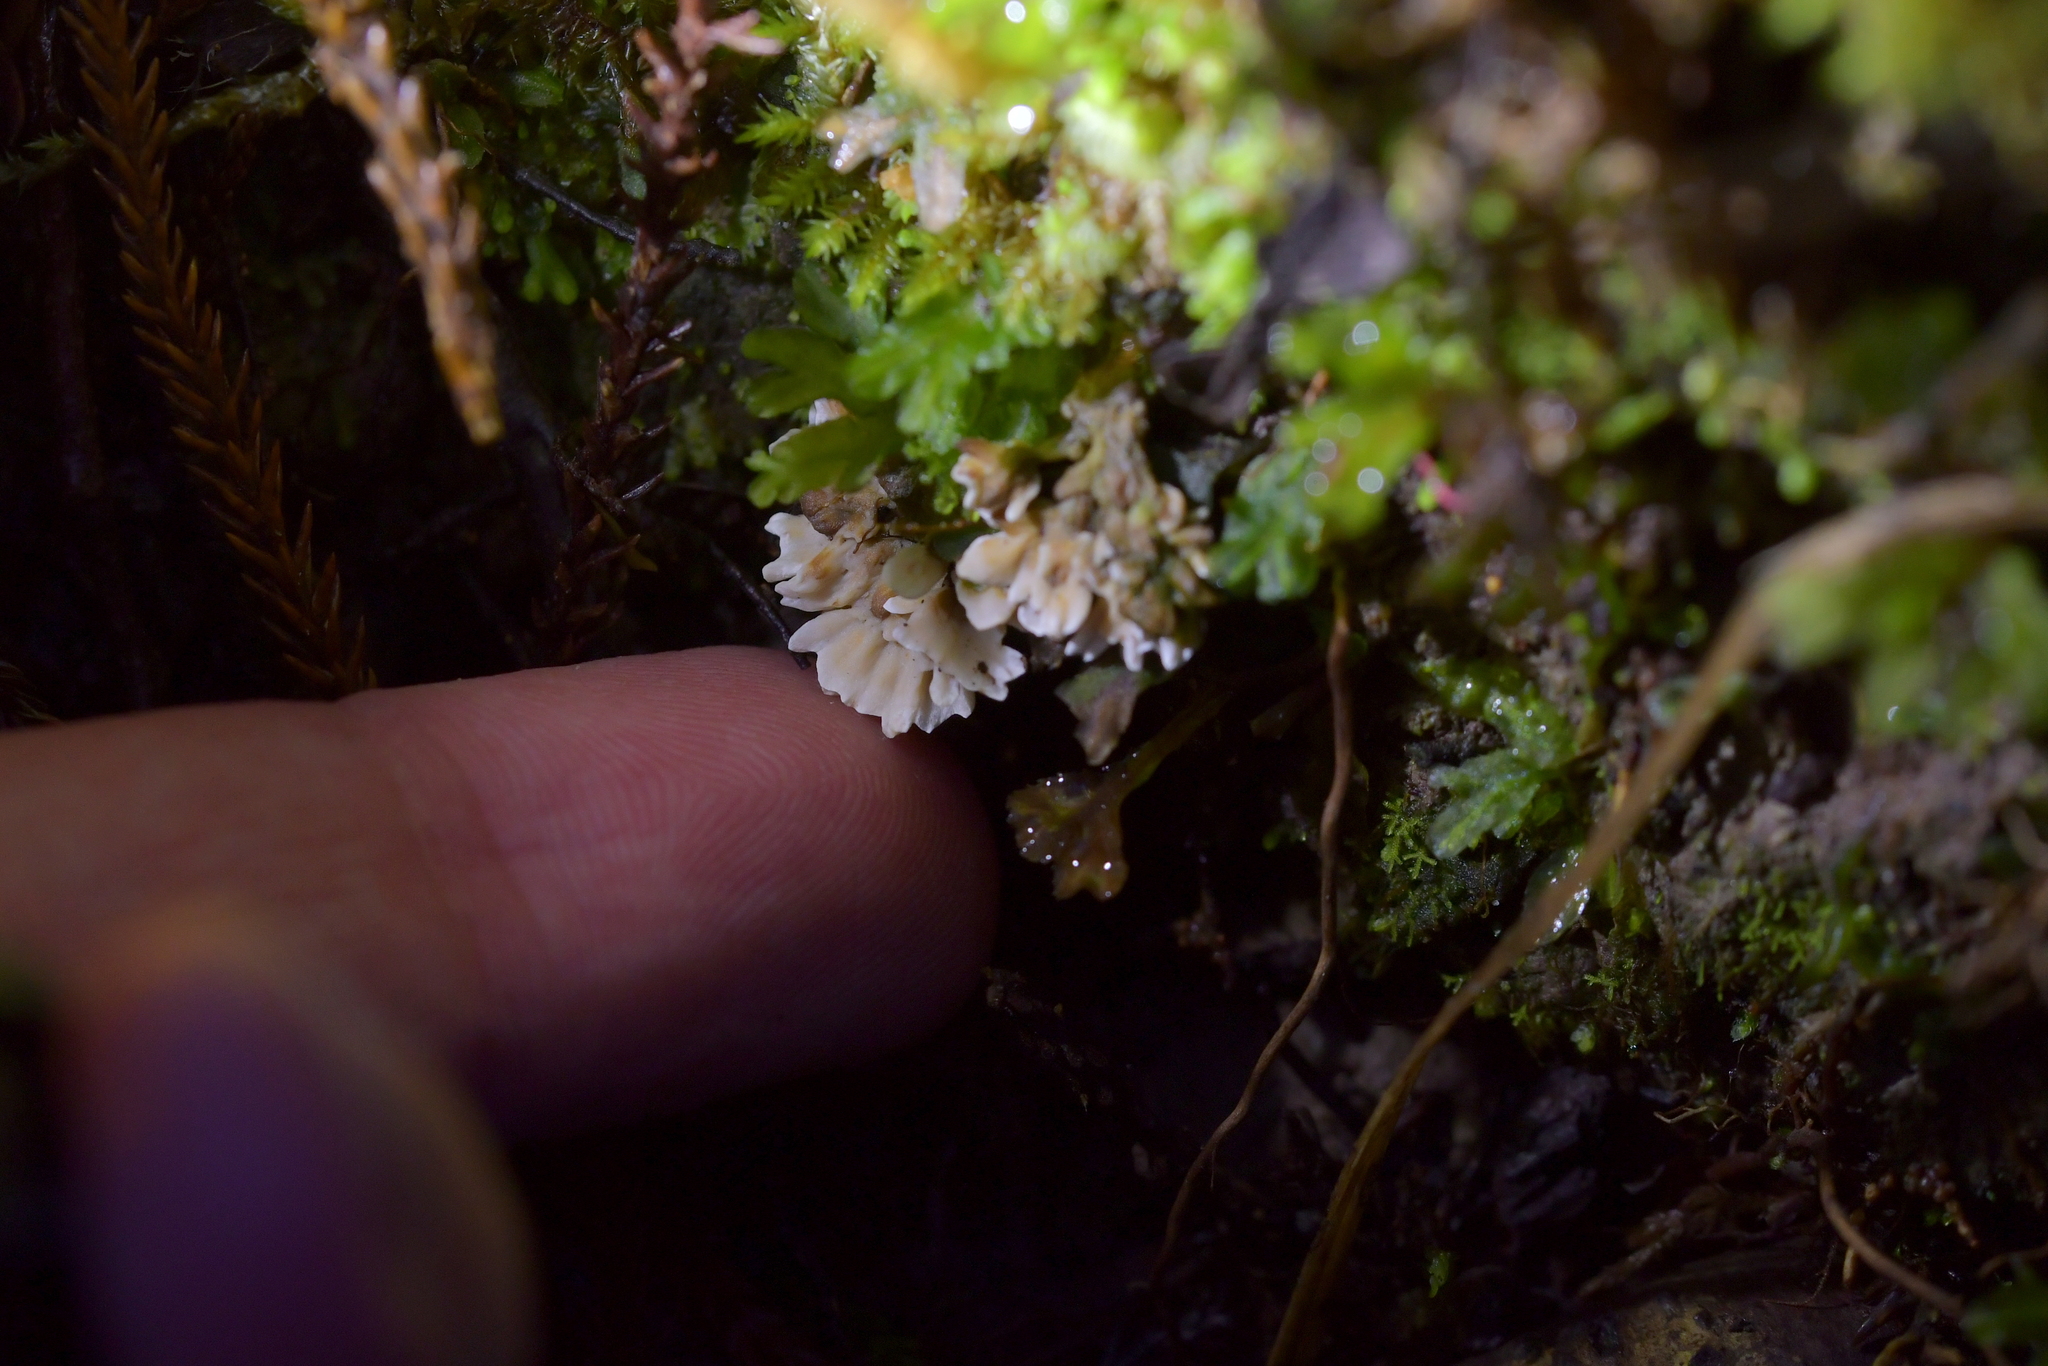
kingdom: Fungi
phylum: Basidiomycota
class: Agaricomycetes
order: Stereopsidales
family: Stereopsidaceae
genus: Stereopsis
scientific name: Stereopsis hiscens
